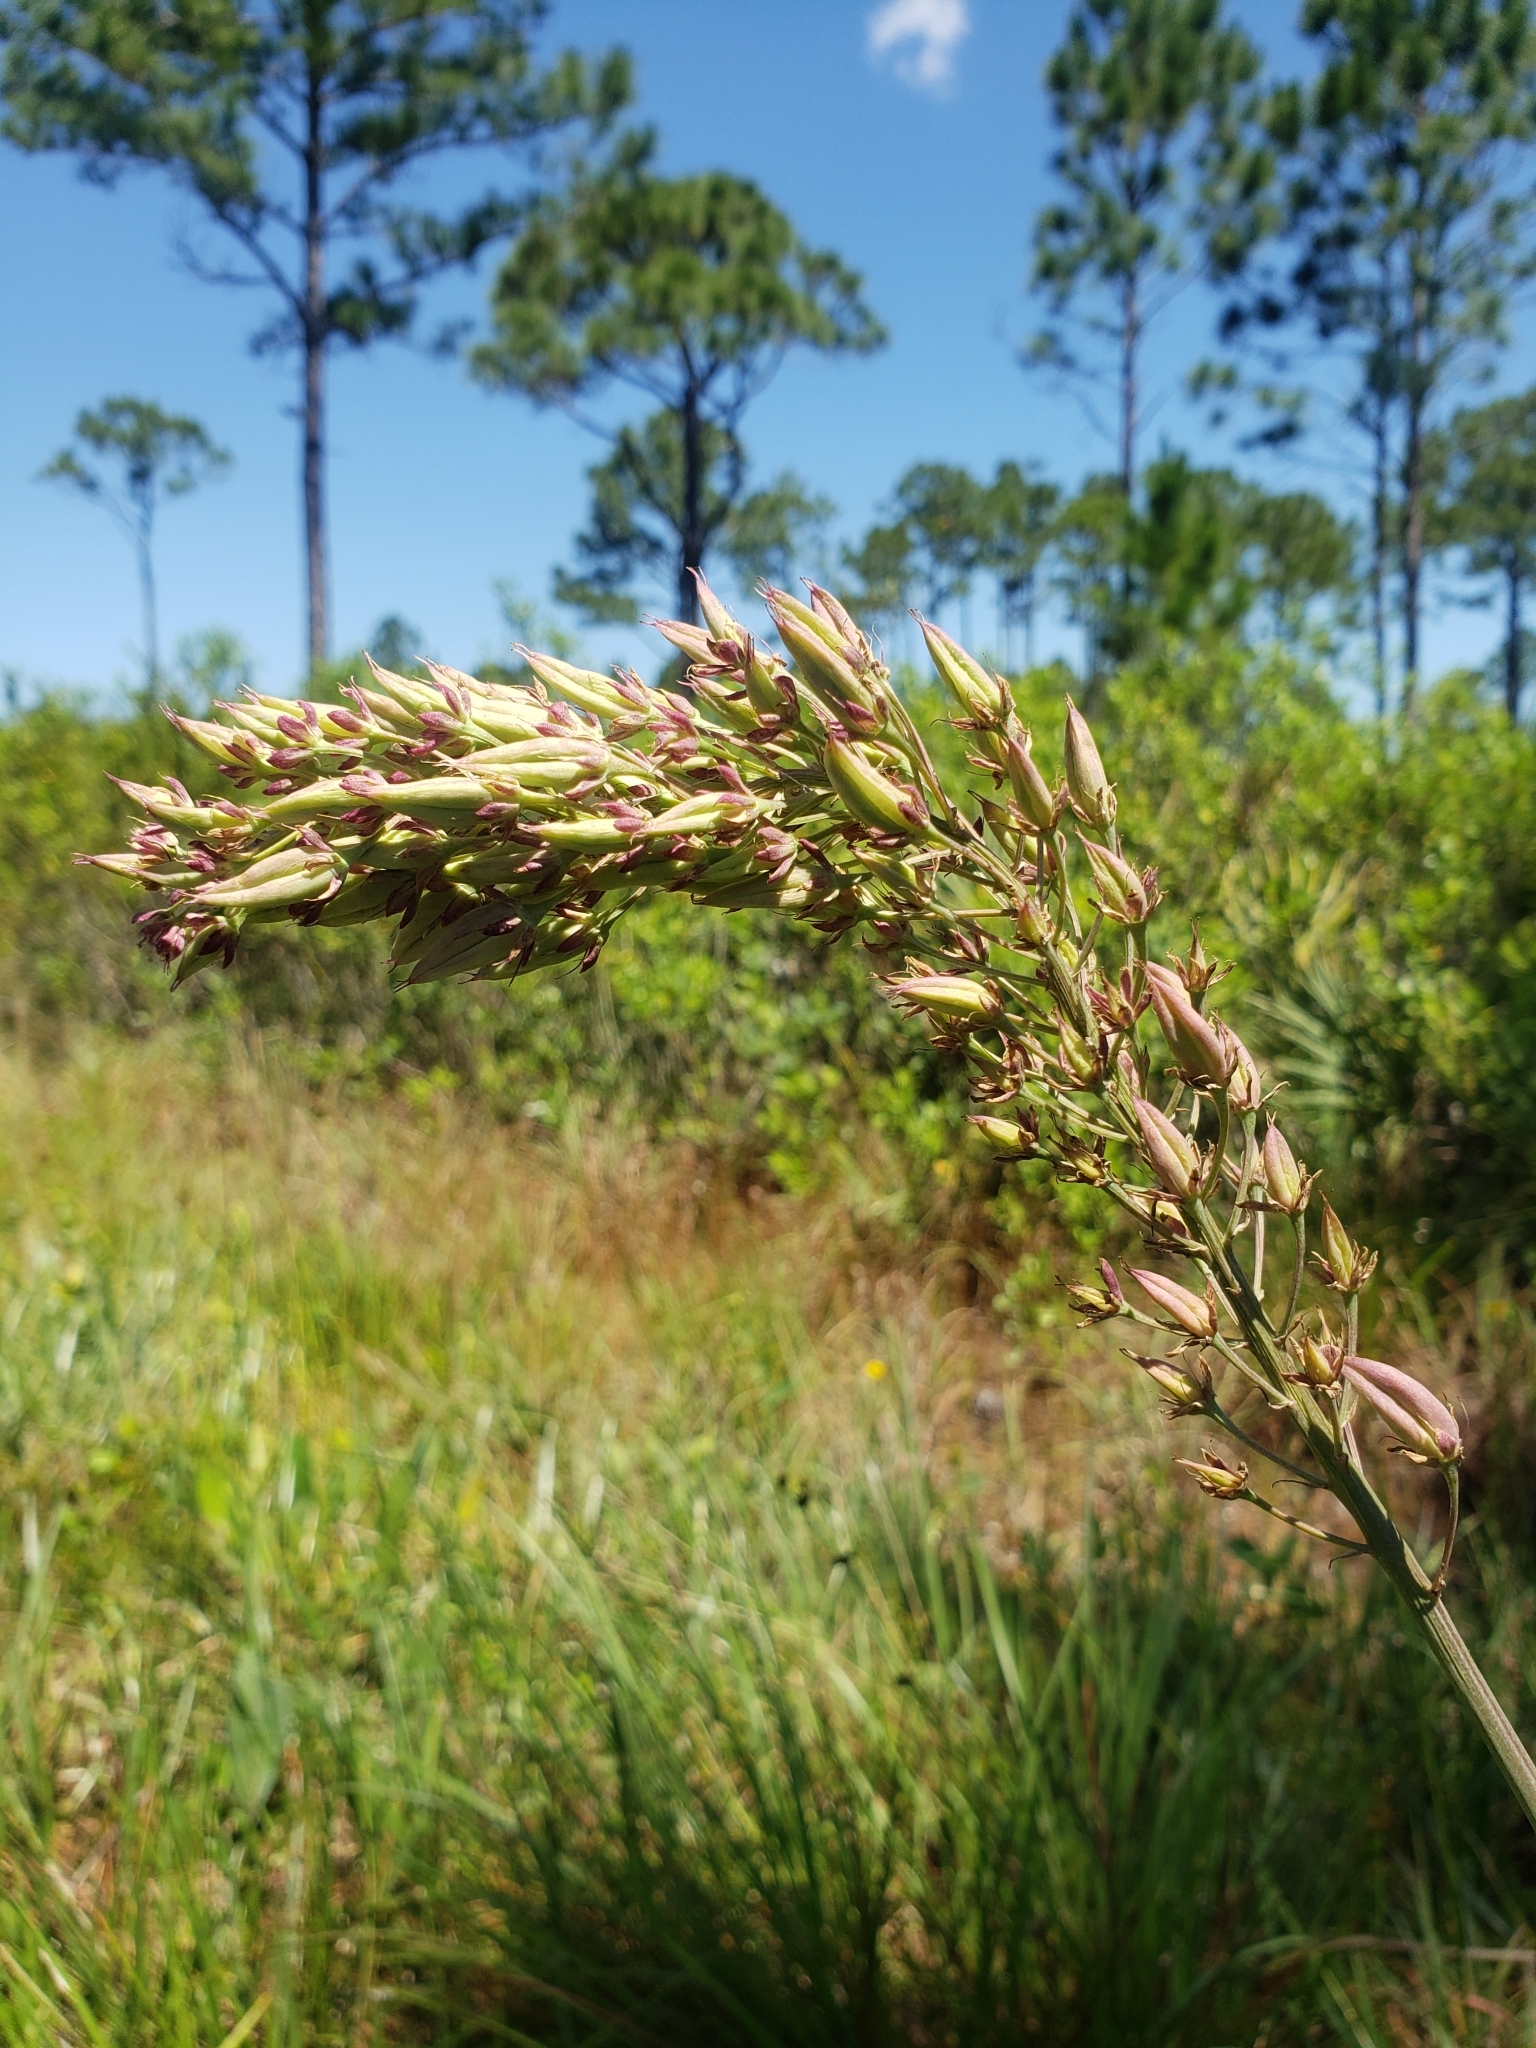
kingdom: Plantae
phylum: Tracheophyta
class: Liliopsida
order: Liliales
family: Melanthiaceae
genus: Stenanthium
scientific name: Stenanthium densum
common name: Crow-poison
